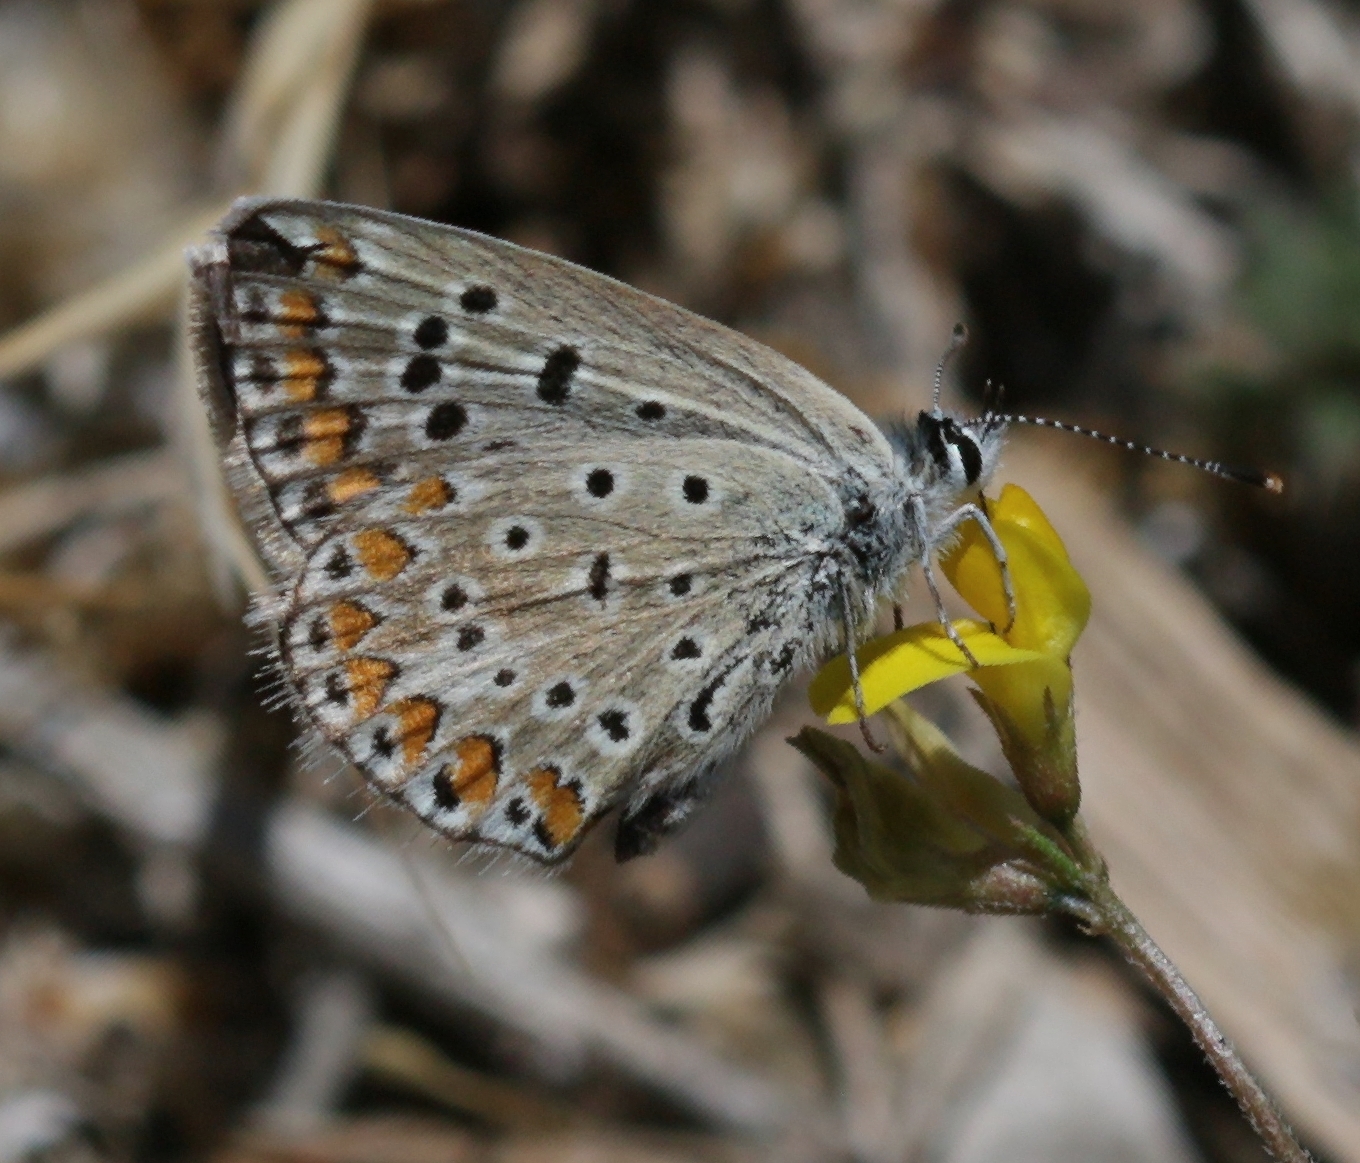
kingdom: Animalia
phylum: Arthropoda
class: Insecta
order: Lepidoptera
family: Lycaenidae
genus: Polyommatus
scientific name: Polyommatus icarus
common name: Common blue
